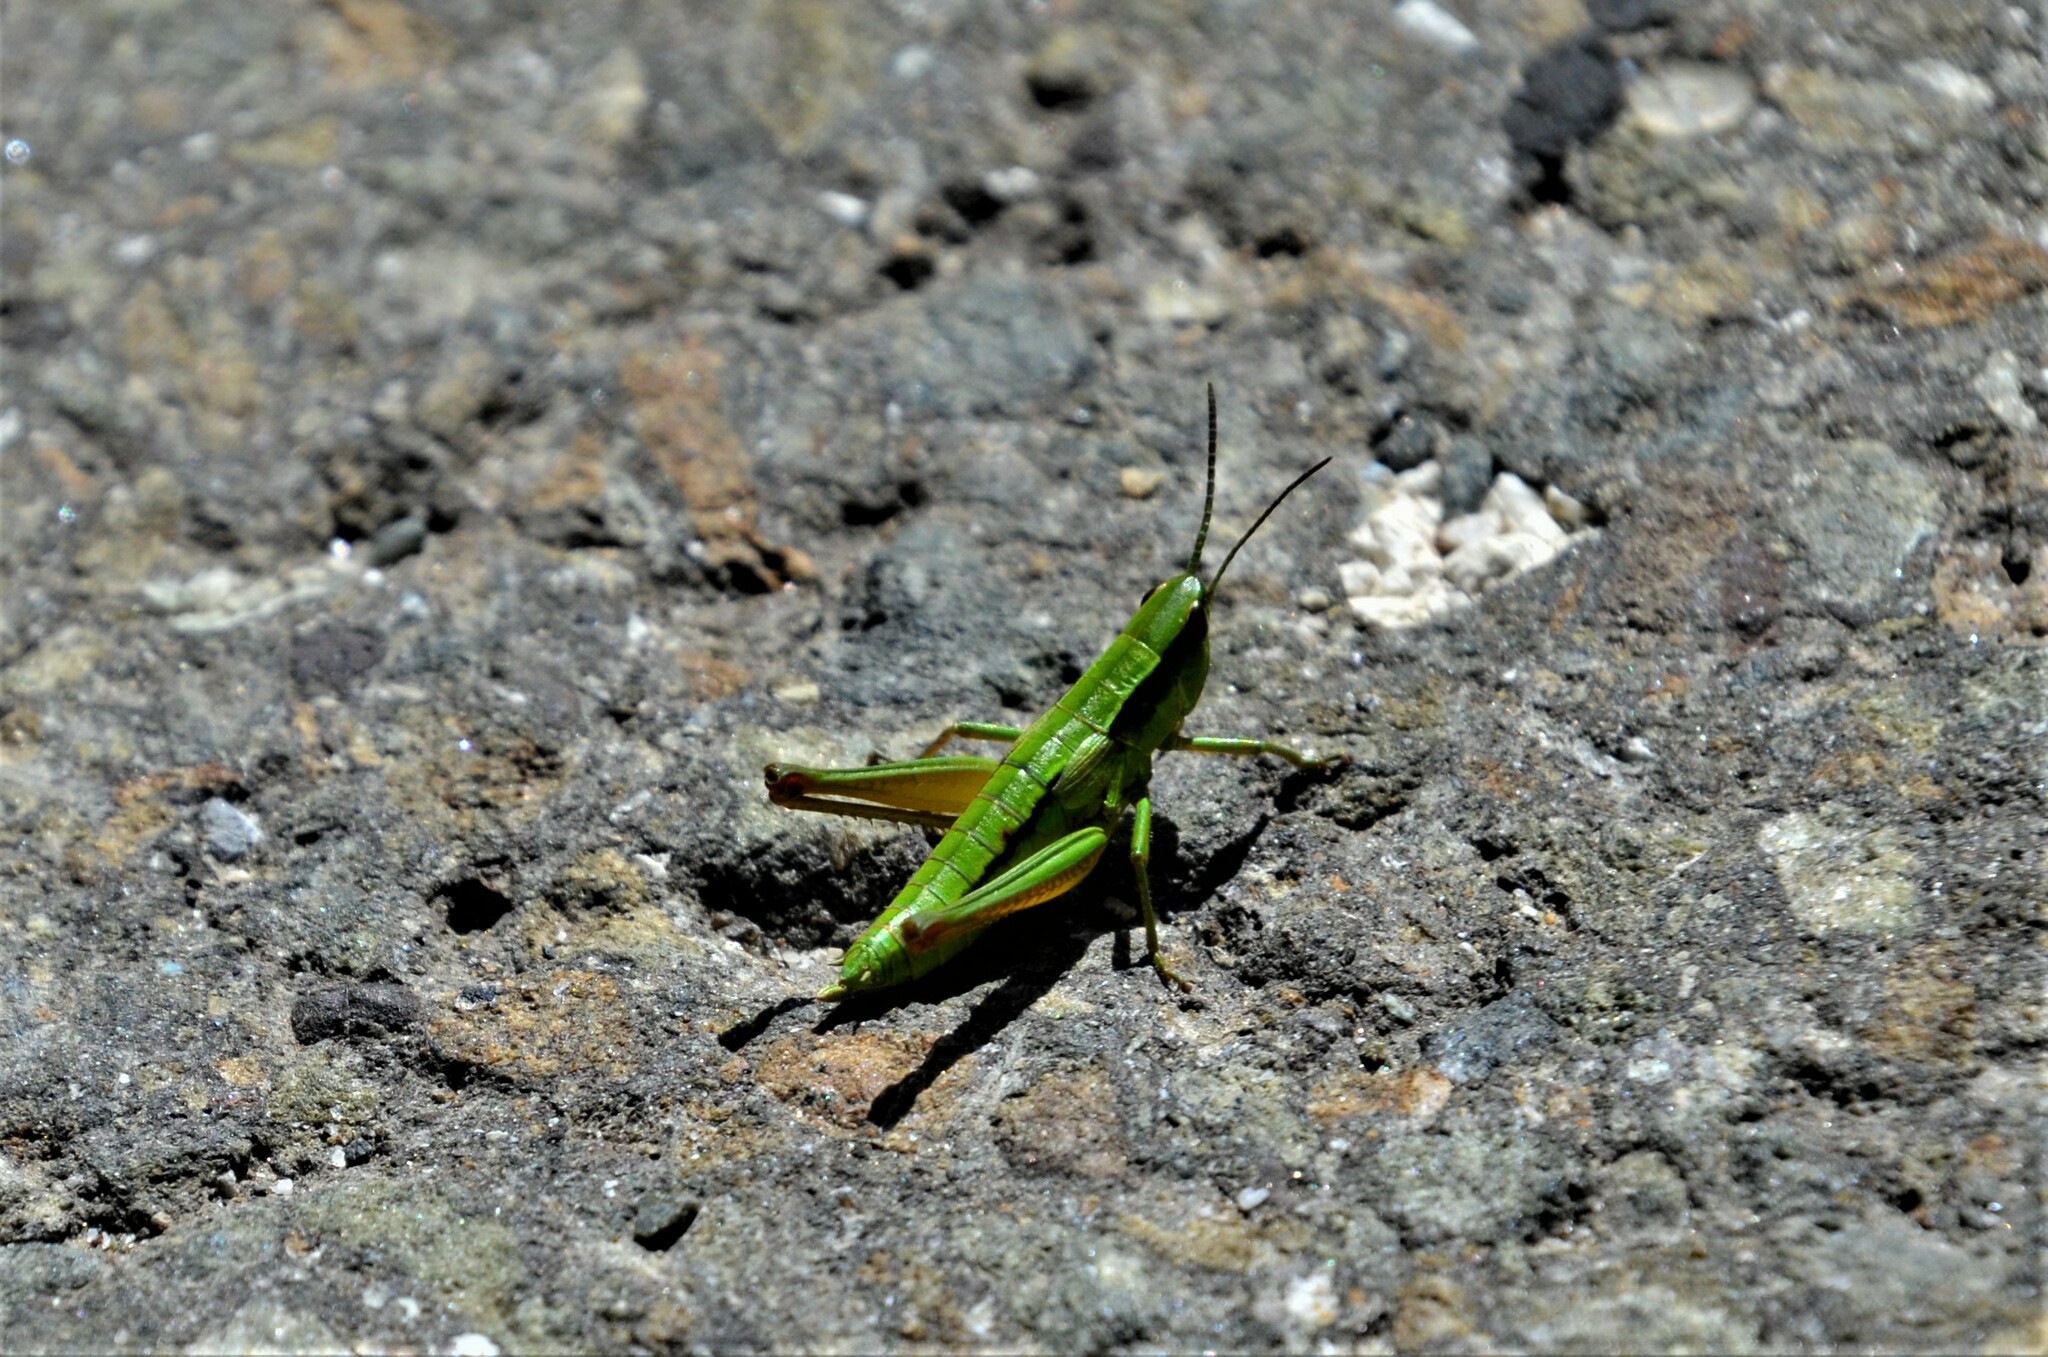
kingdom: Animalia
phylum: Arthropoda
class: Insecta
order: Orthoptera
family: Acrididae
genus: Euthystira
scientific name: Euthystira brachyptera
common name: Small gold grasshopper
